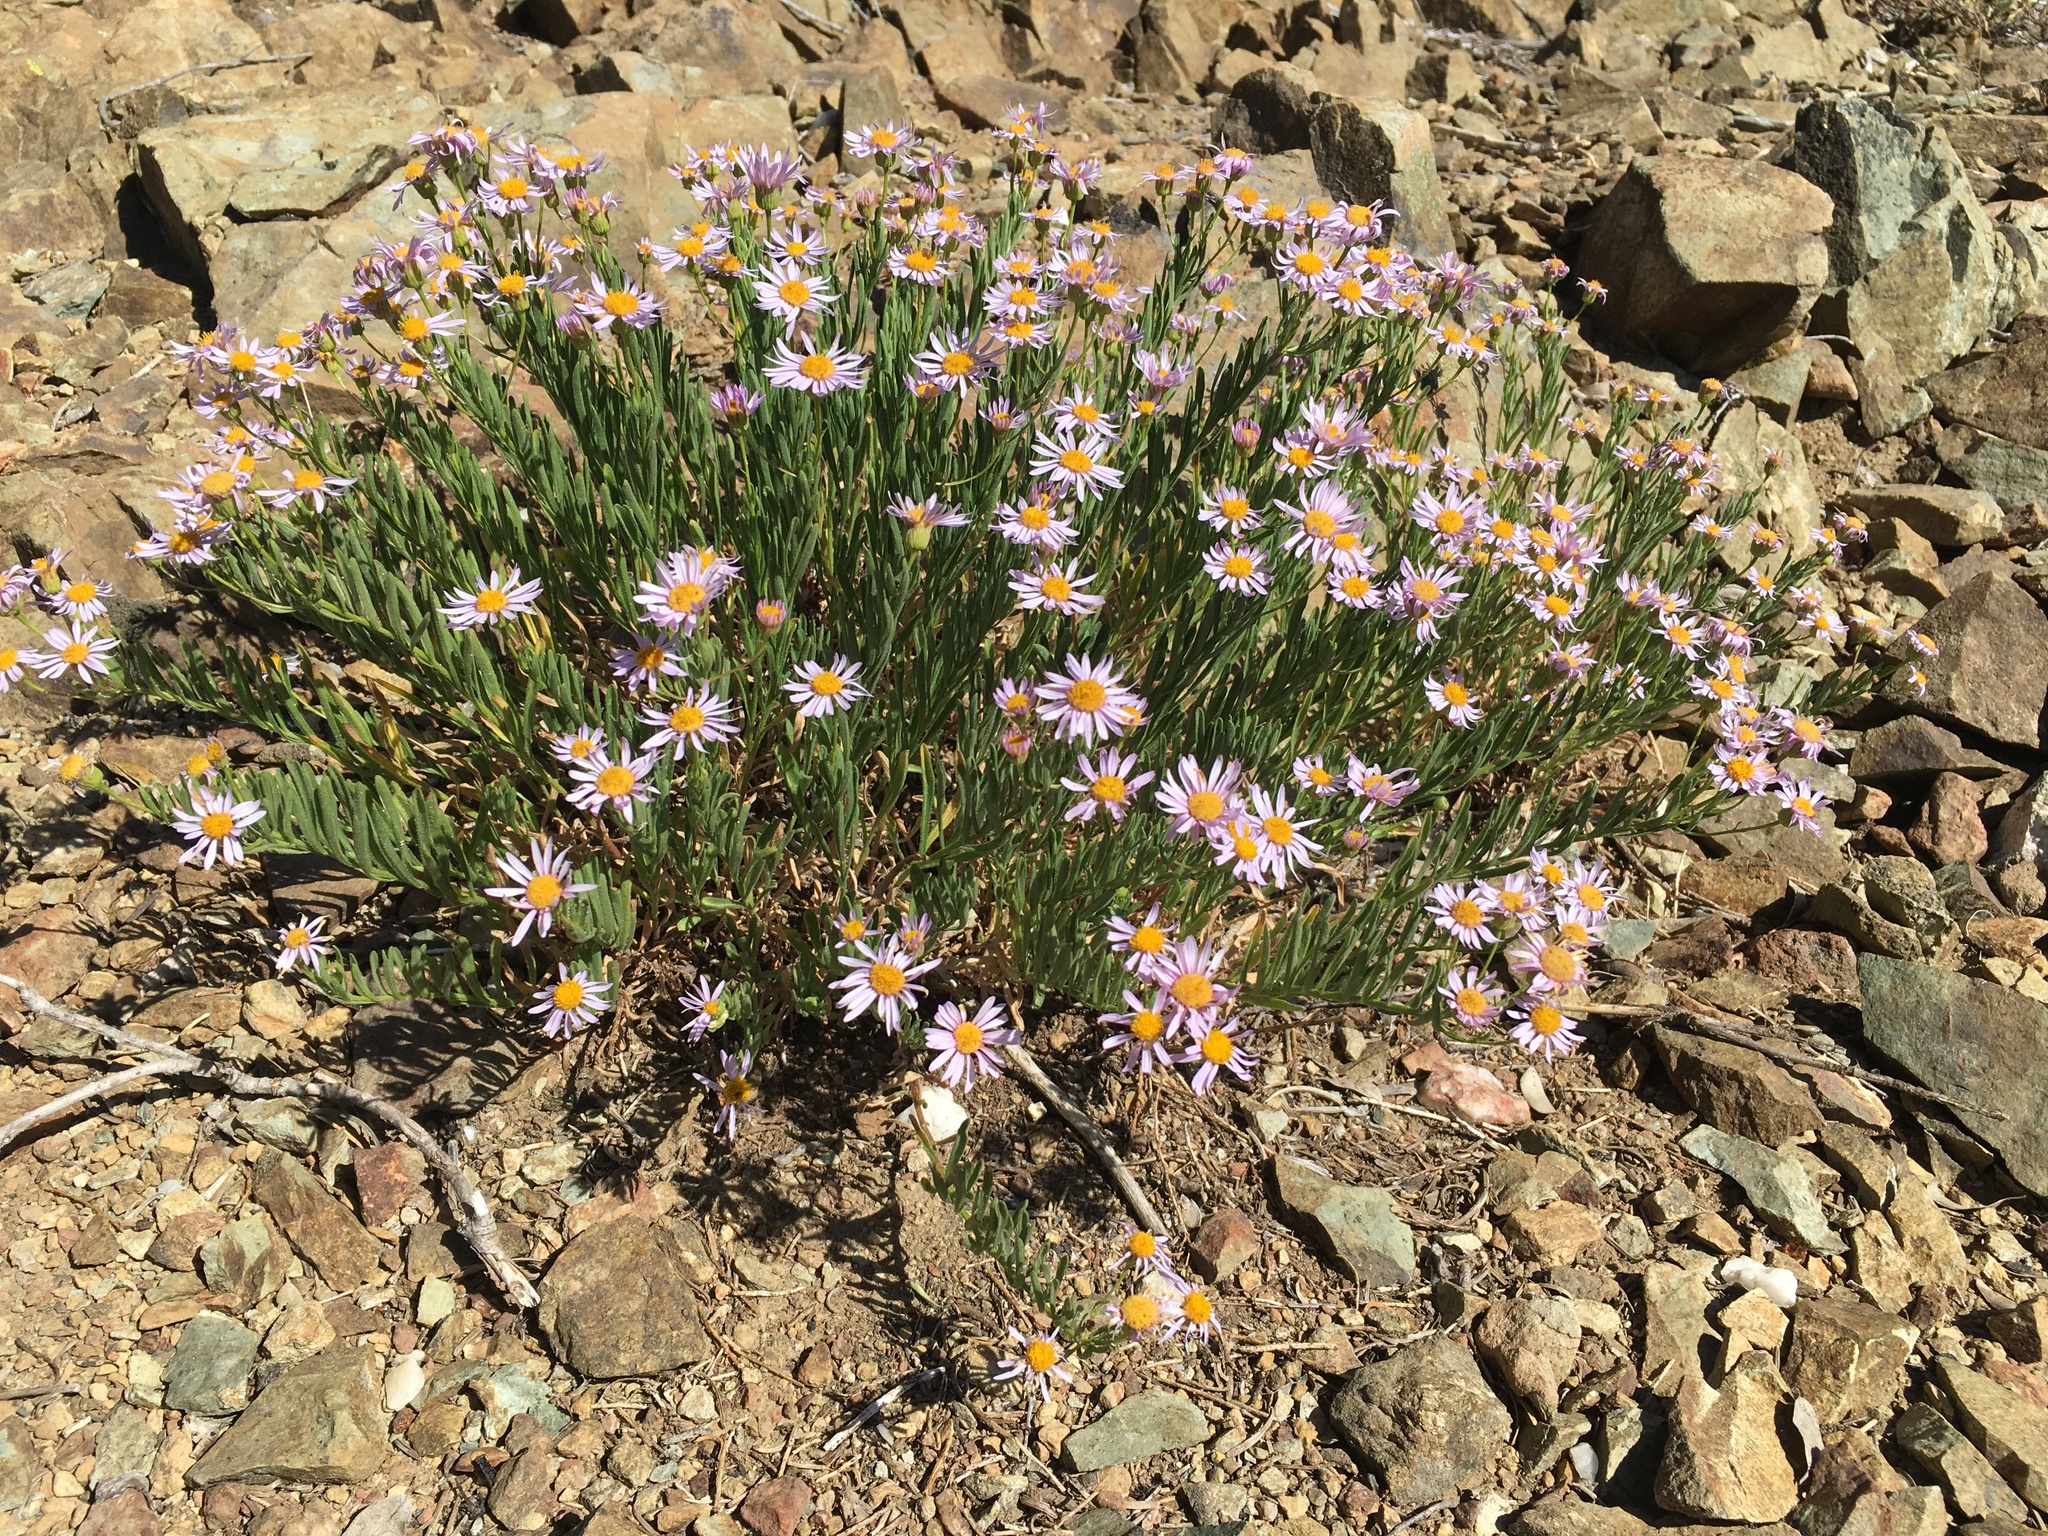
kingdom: Plantae
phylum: Tracheophyta
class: Magnoliopsida
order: Asterales
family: Asteraceae
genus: Erigeron
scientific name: Erigeron klamathensis
